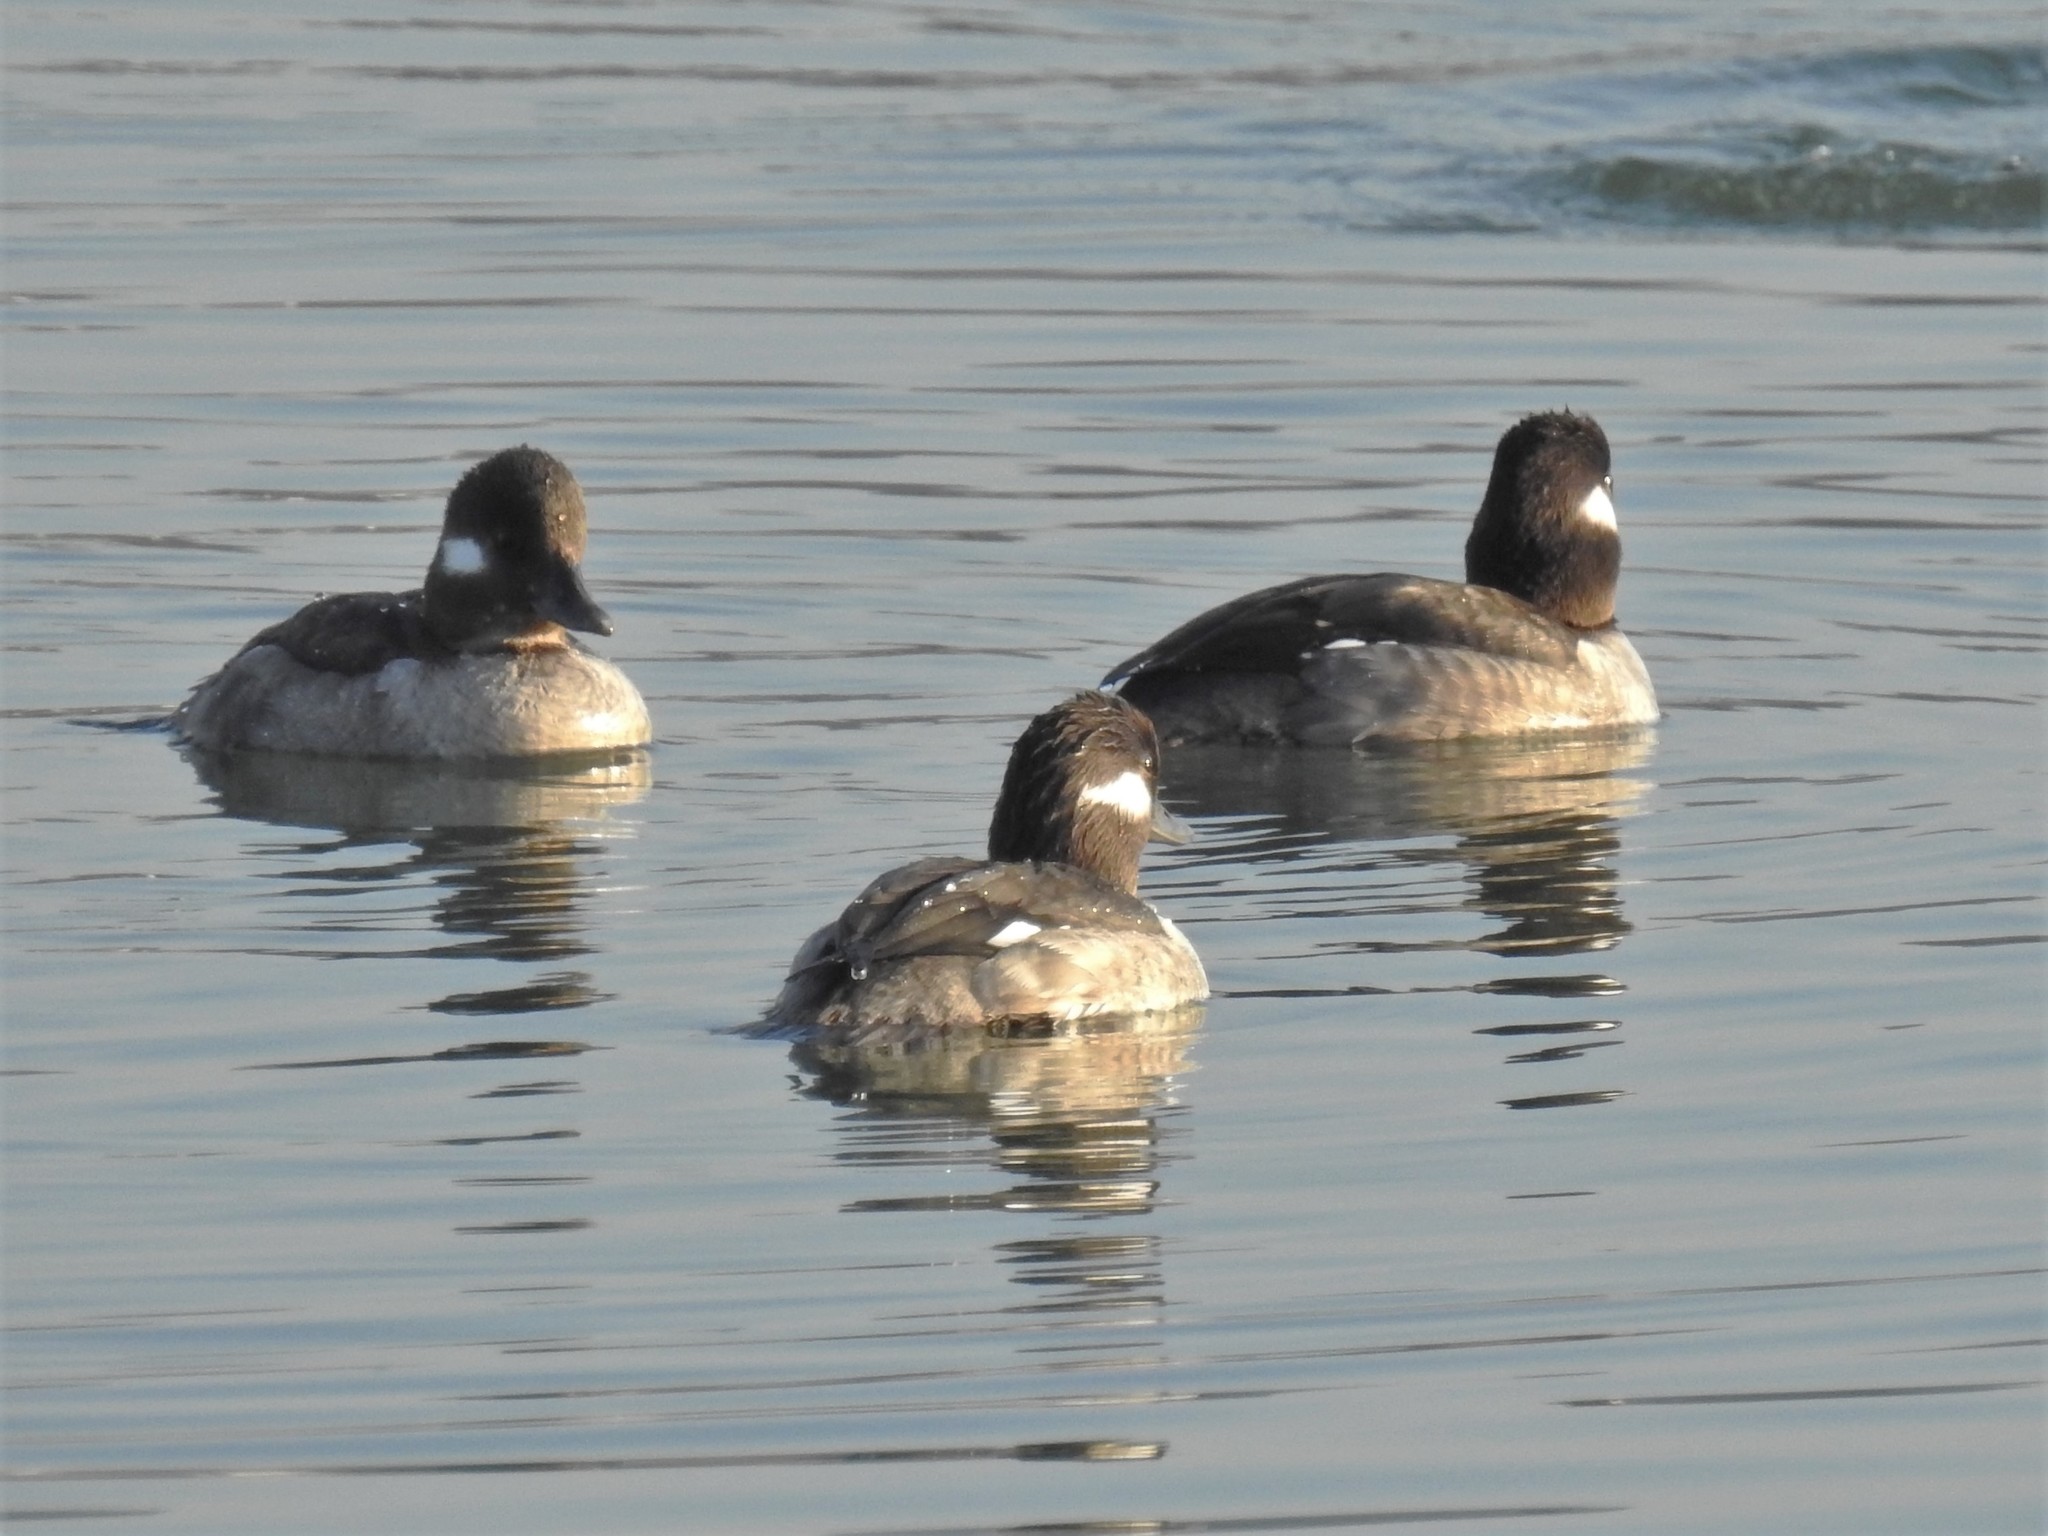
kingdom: Animalia
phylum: Chordata
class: Aves
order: Anseriformes
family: Anatidae
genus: Bucephala
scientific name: Bucephala albeola
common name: Bufflehead
